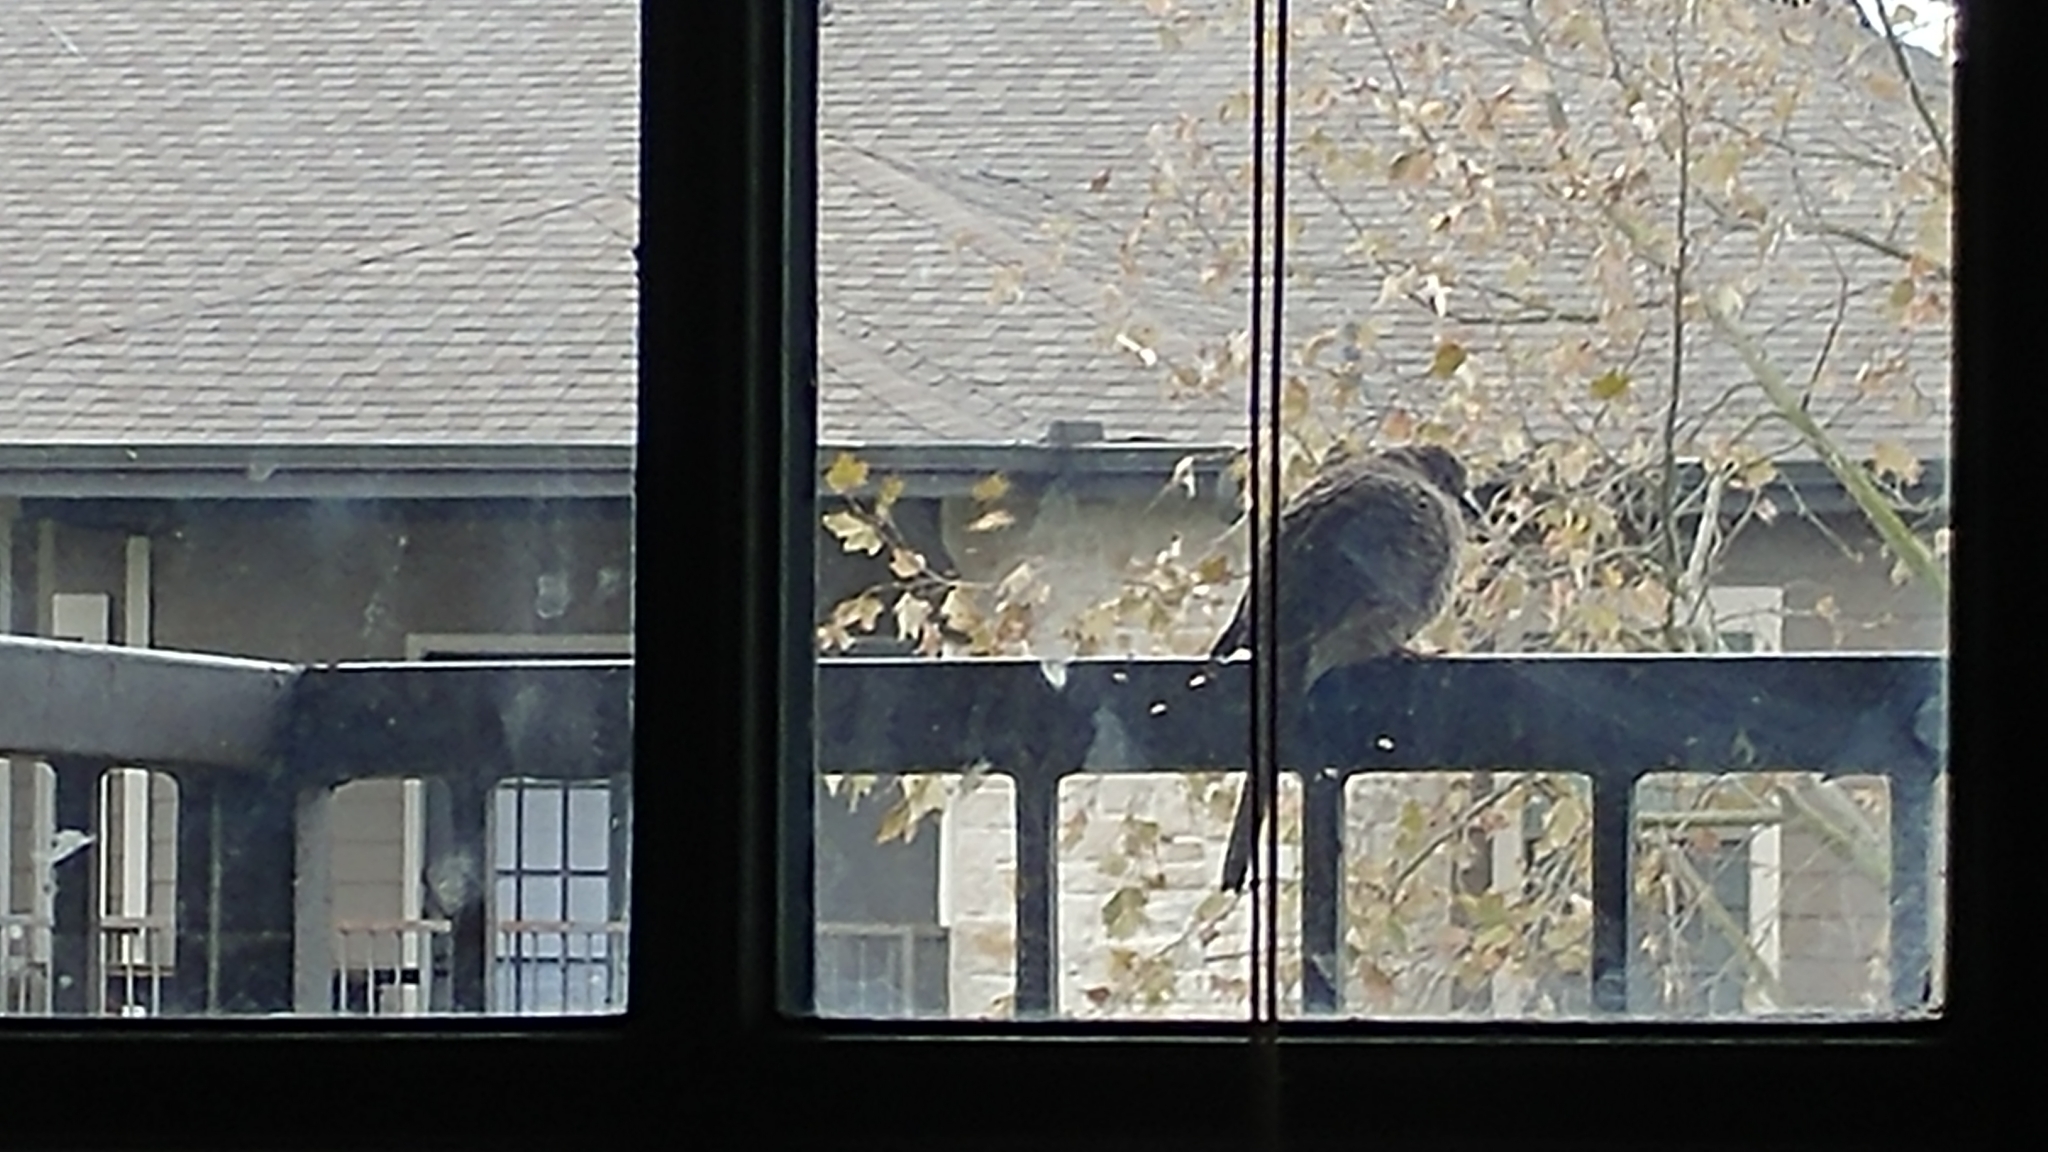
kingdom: Animalia
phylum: Chordata
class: Aves
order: Columbiformes
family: Columbidae
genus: Columbina
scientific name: Columbina inca
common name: Inca dove
